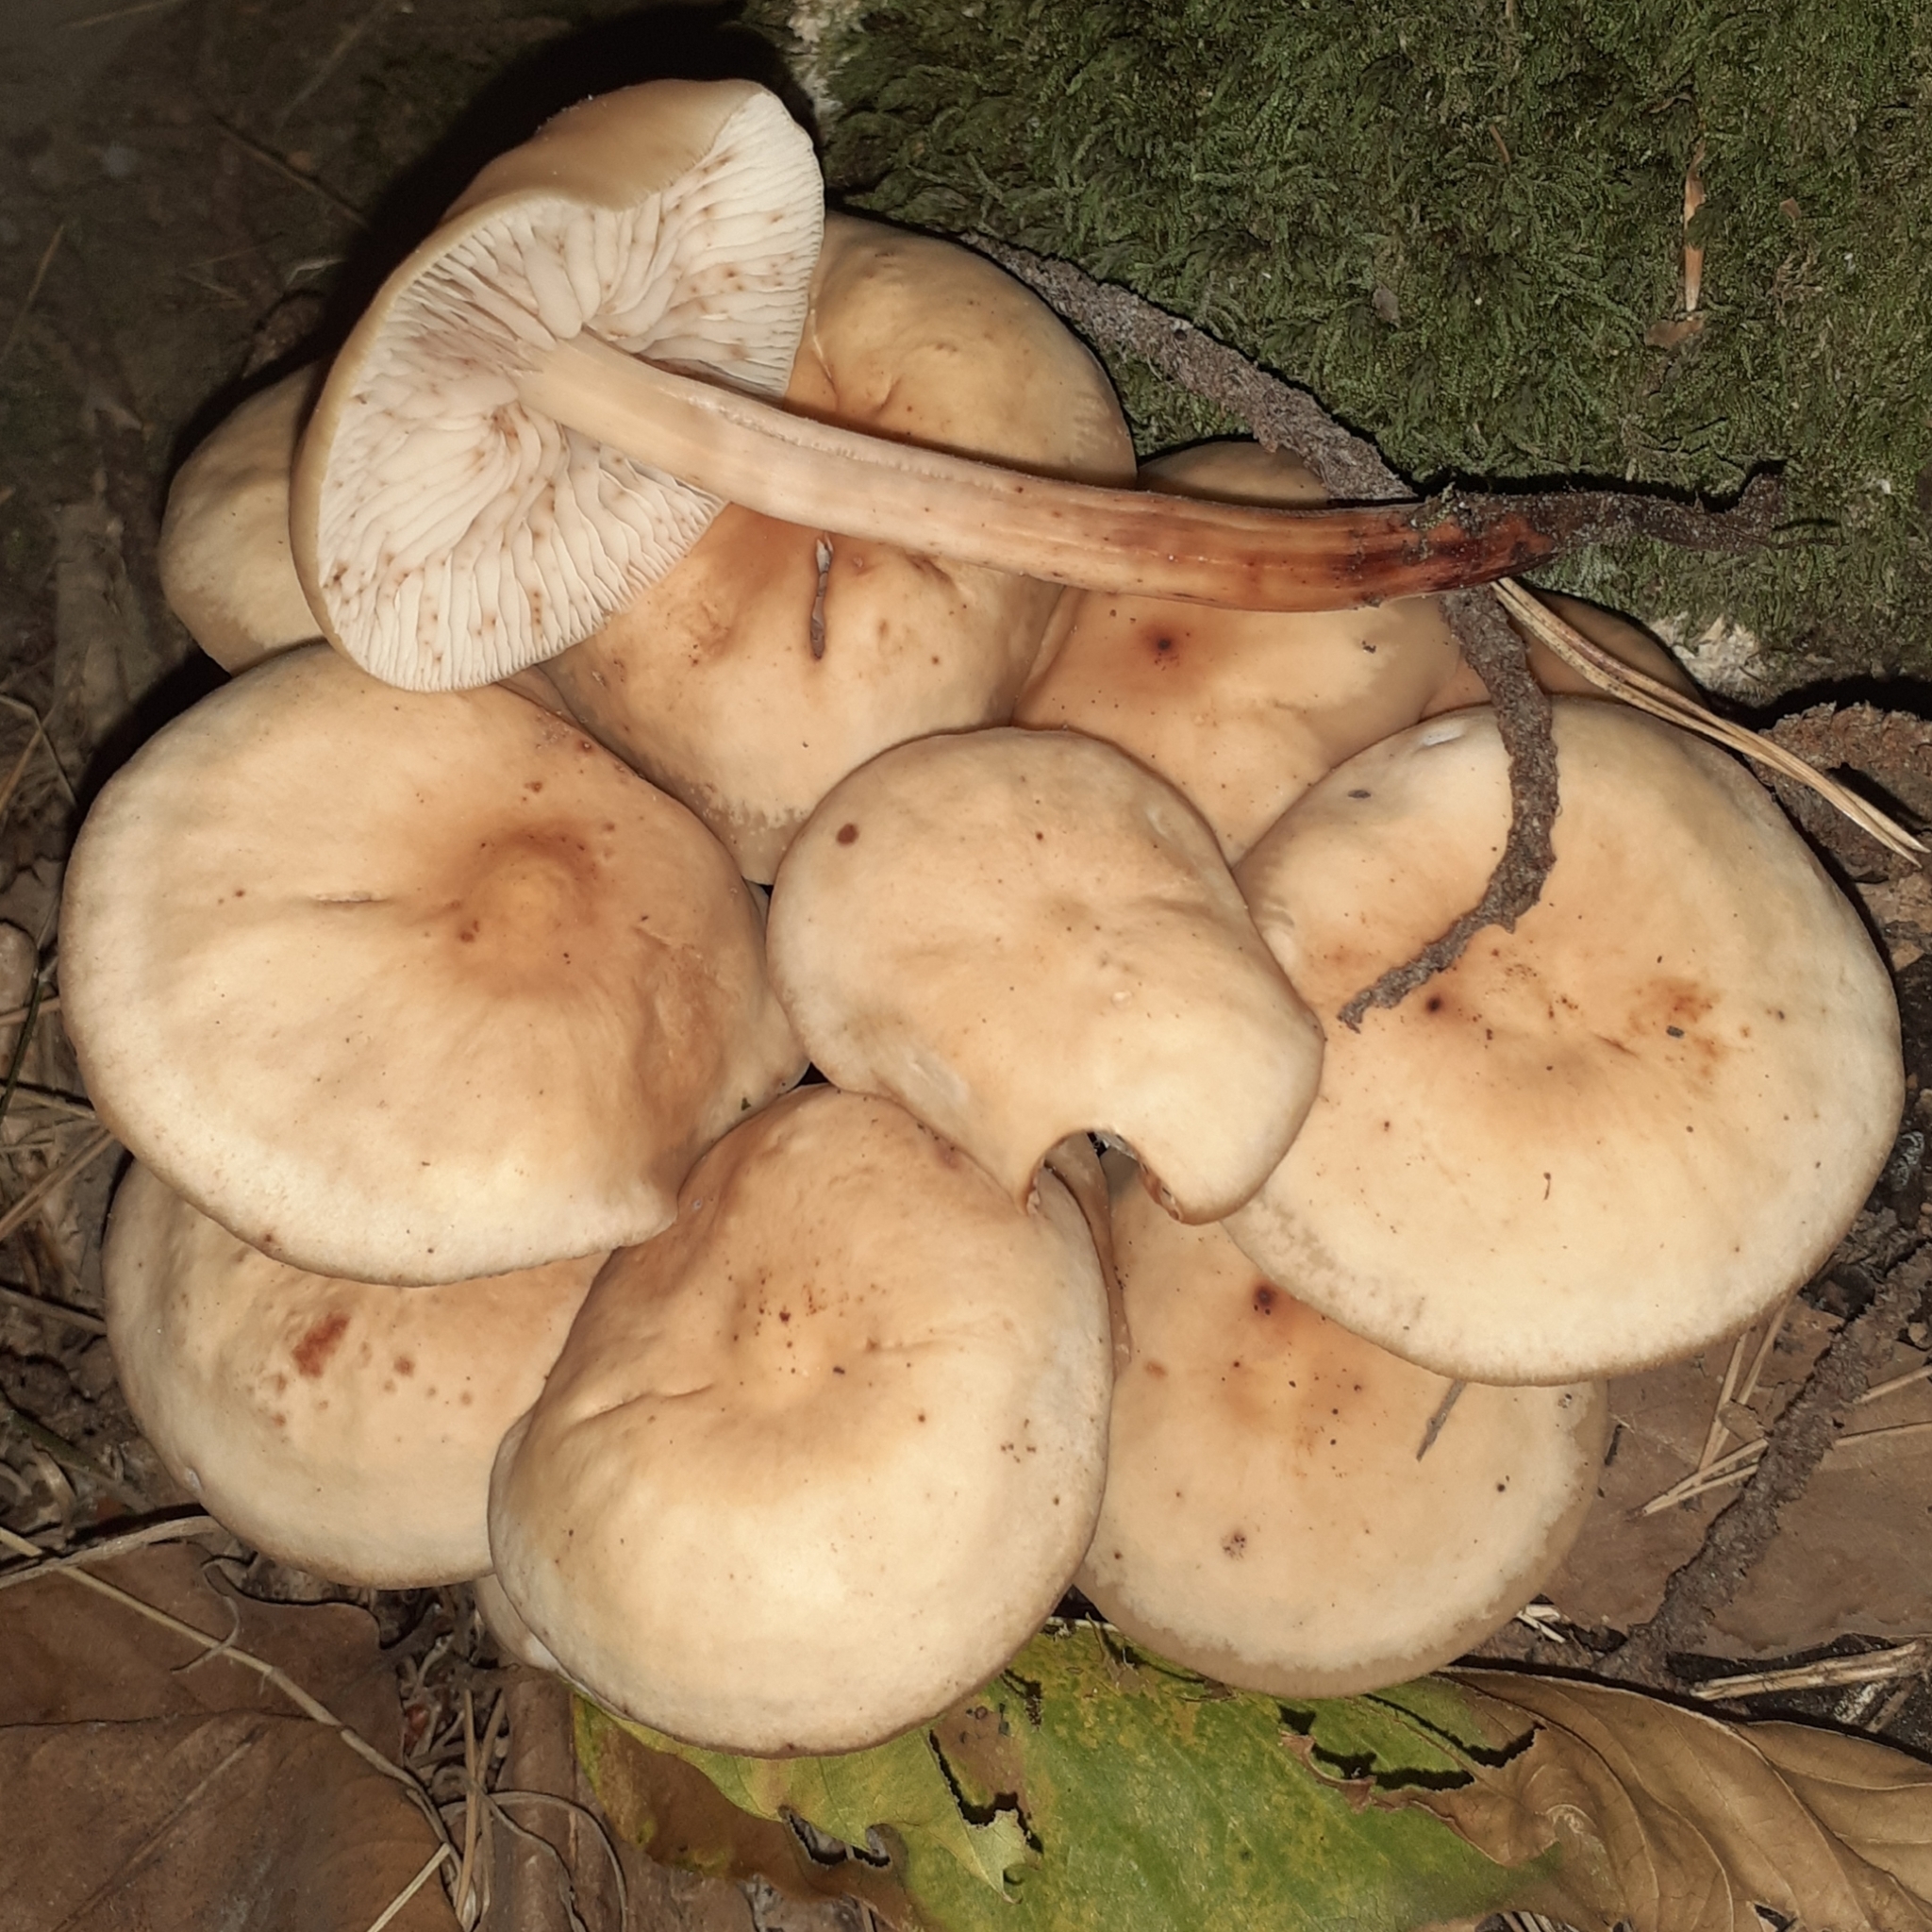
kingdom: Fungi
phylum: Basidiomycota
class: Agaricomycetes
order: Agaricales
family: Omphalotaceae
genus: Gymnopus
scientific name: Gymnopus fusipes
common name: Spindle shank
